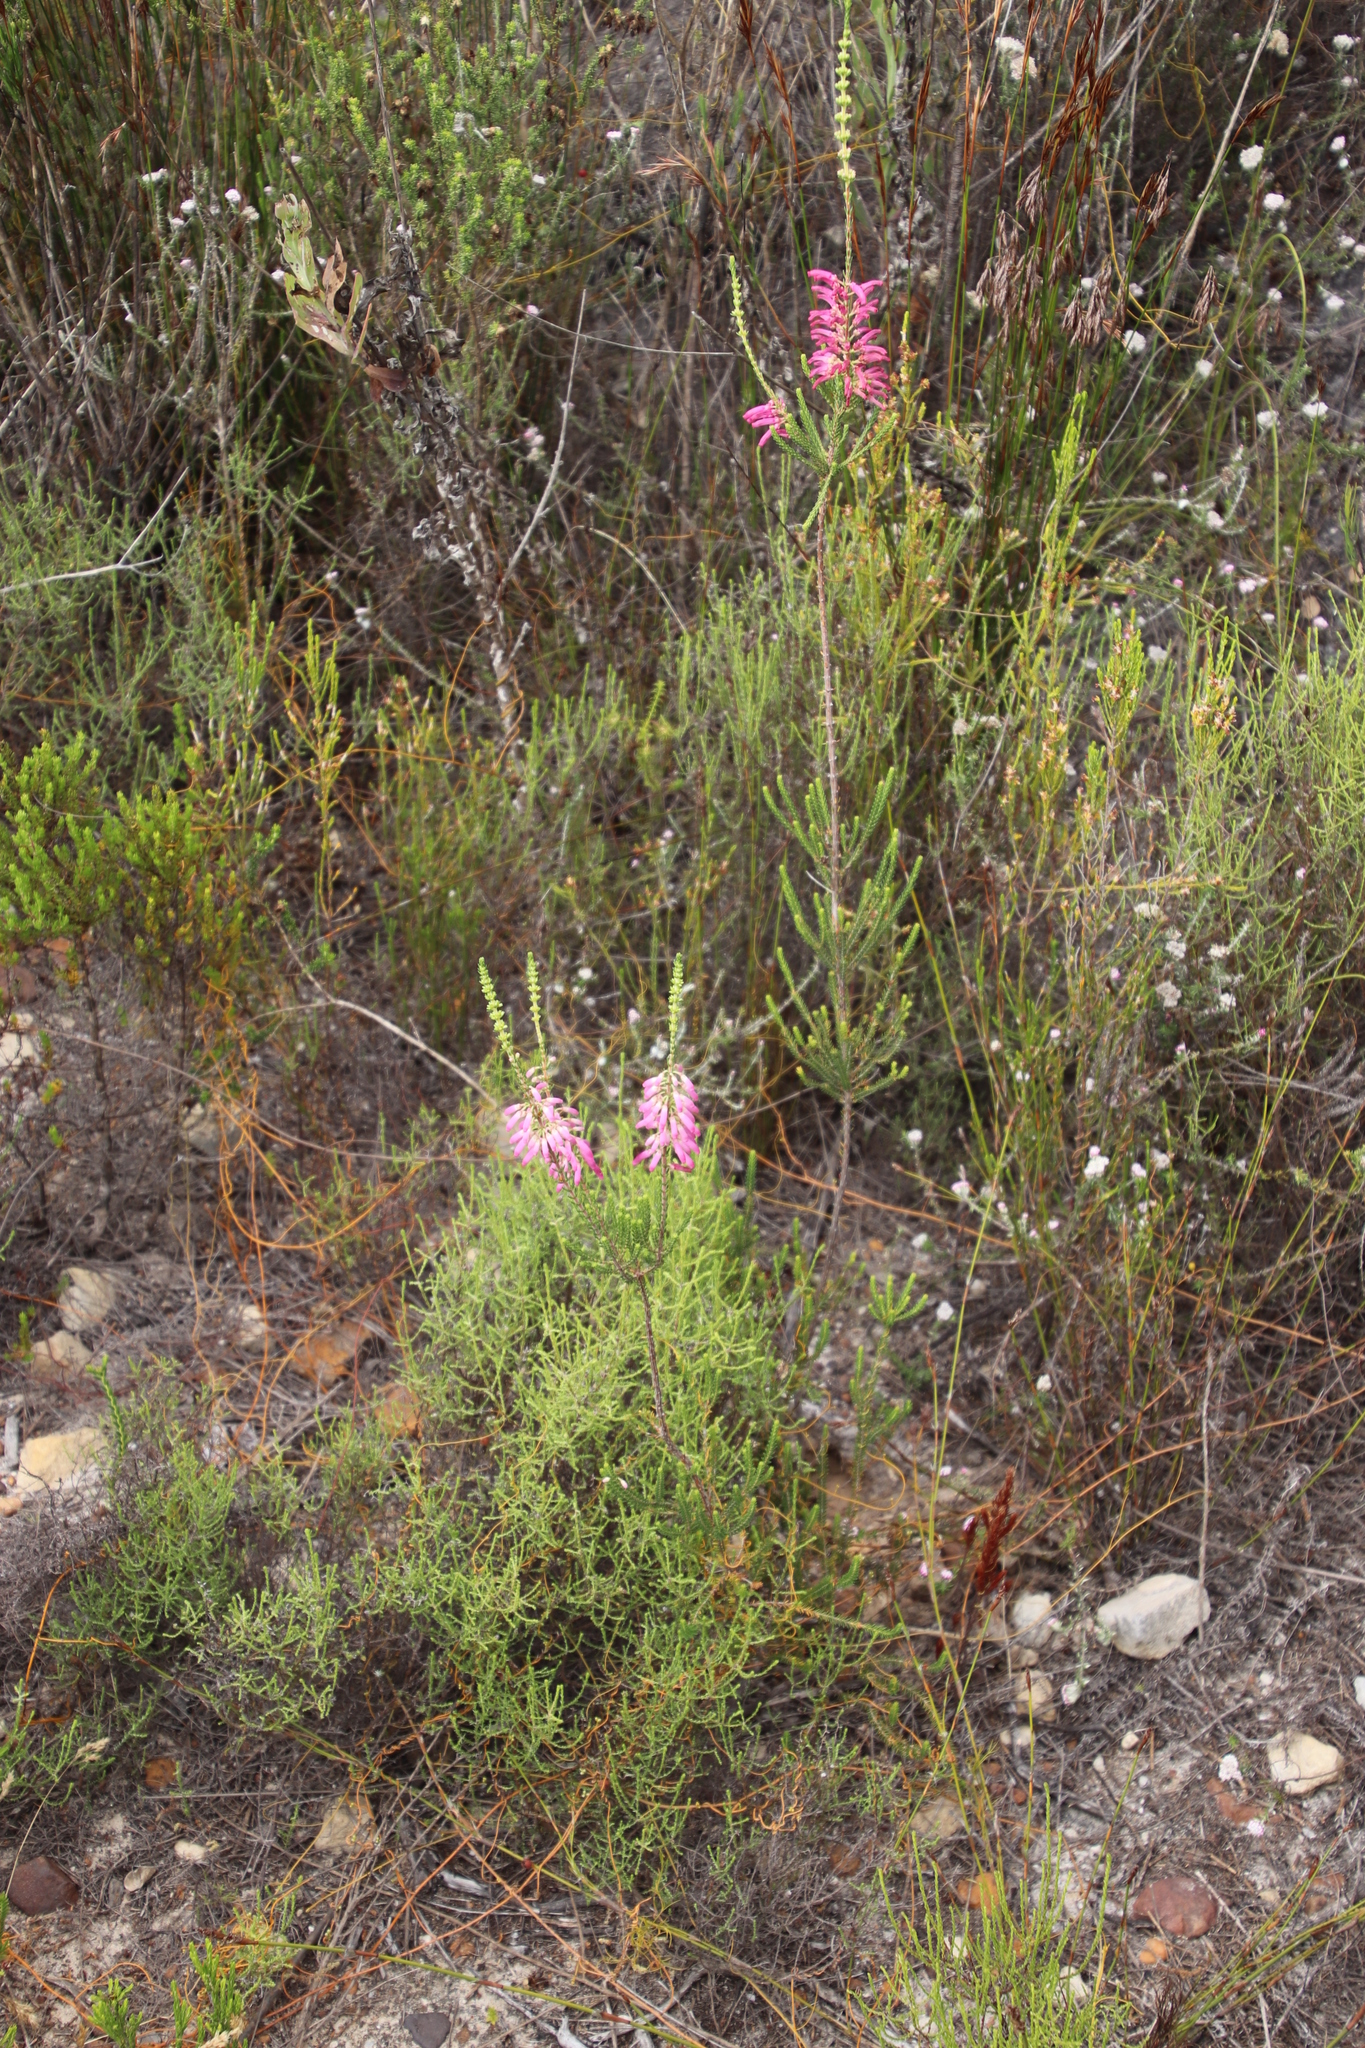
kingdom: Plantae
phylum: Tracheophyta
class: Magnoliopsida
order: Ericales
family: Ericaceae
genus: Erica
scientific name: Erica mammosa
